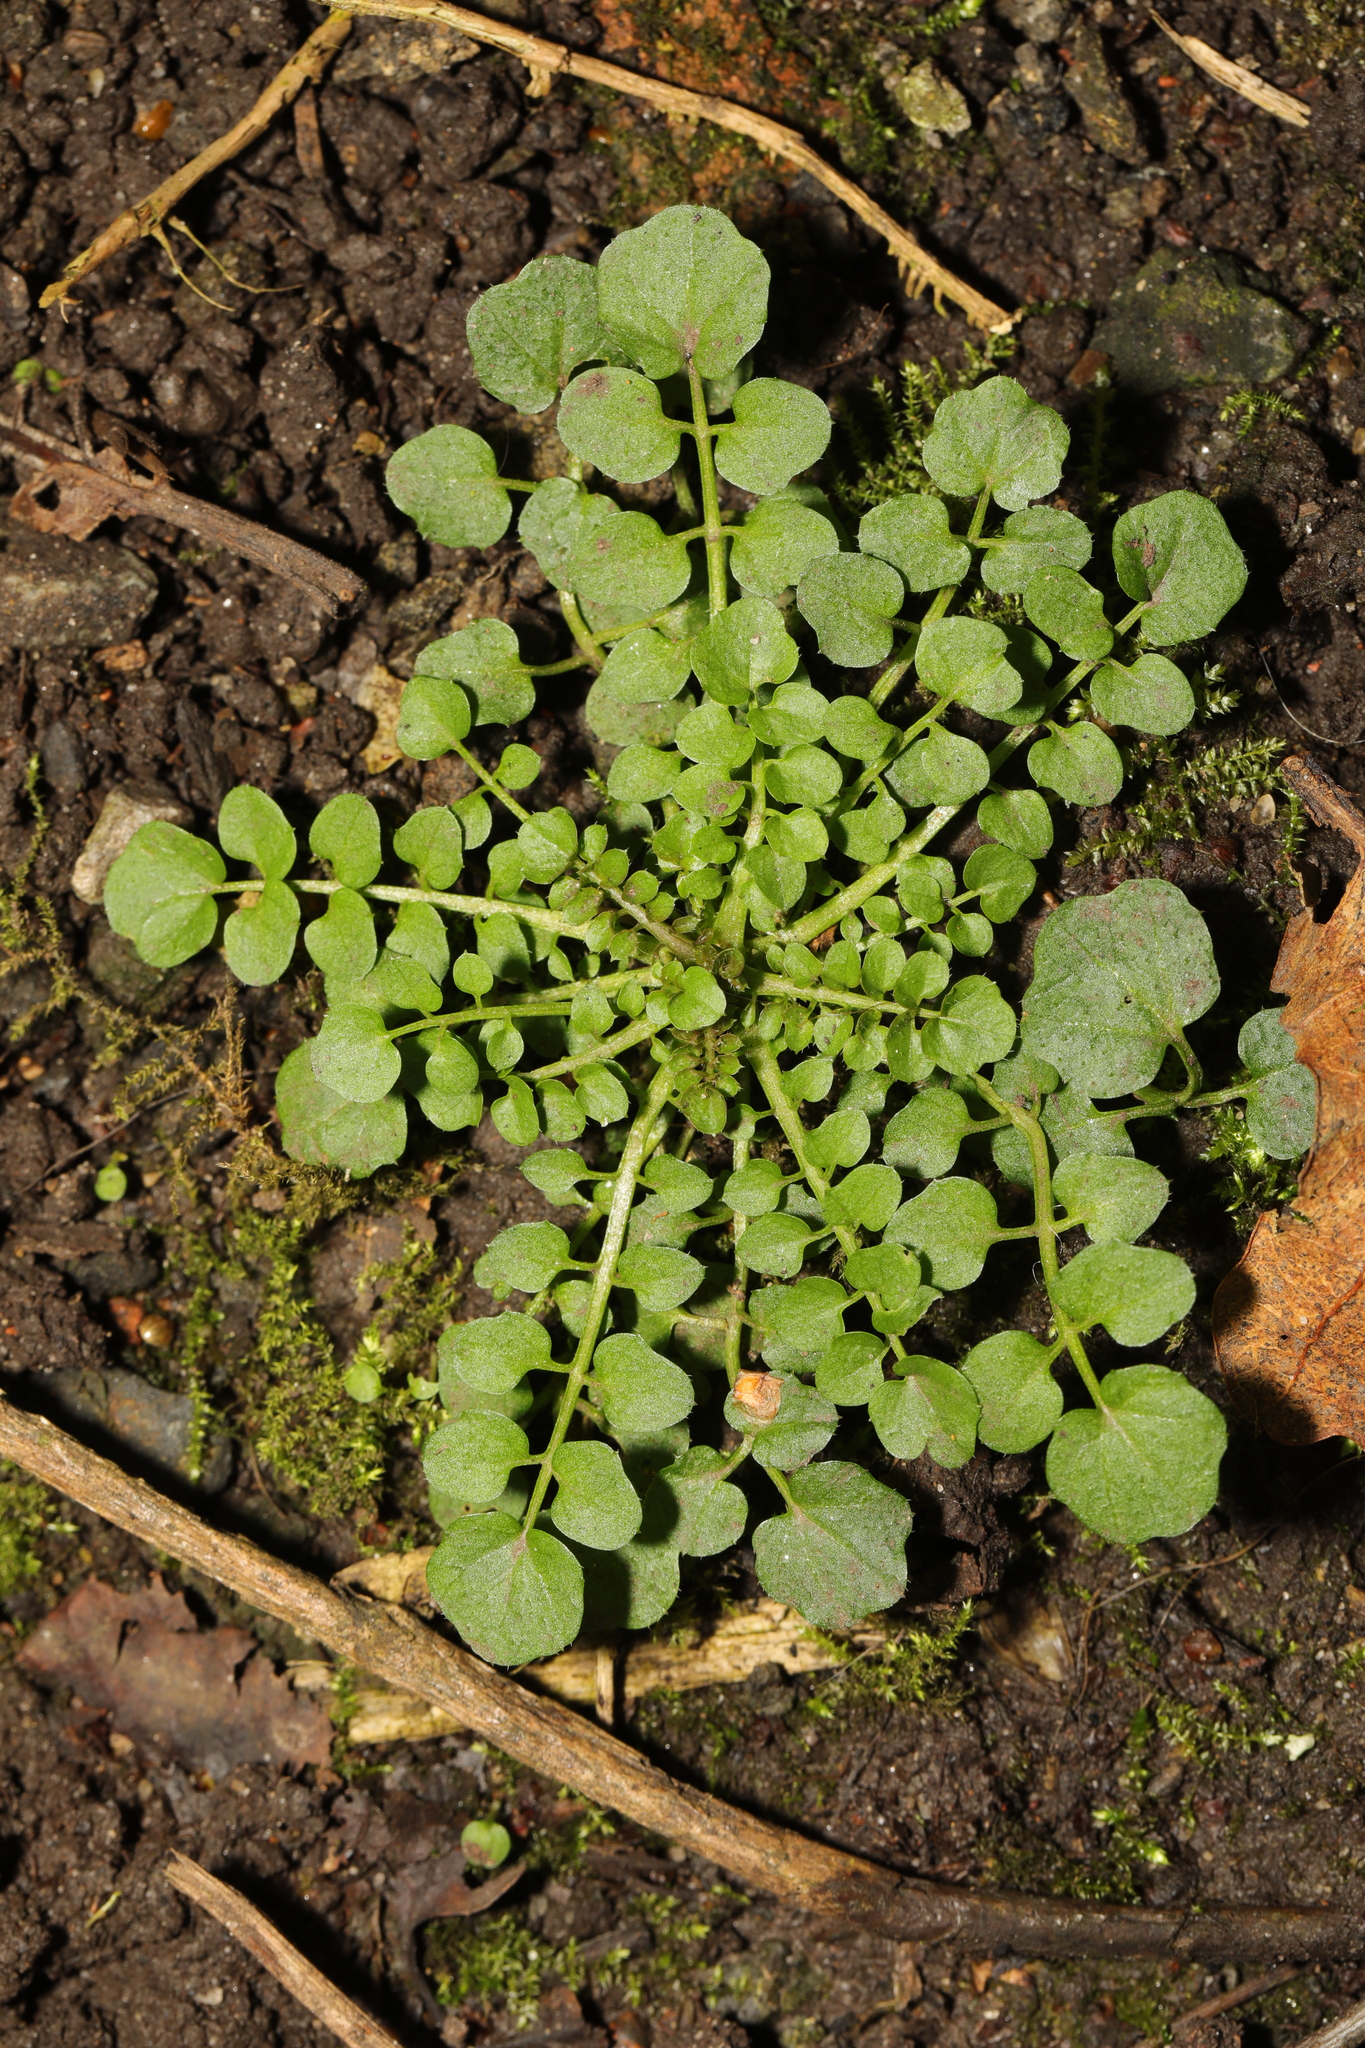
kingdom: Plantae
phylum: Tracheophyta
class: Magnoliopsida
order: Brassicales
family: Brassicaceae
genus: Cardamine
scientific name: Cardamine hirsuta
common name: Hairy bittercress
